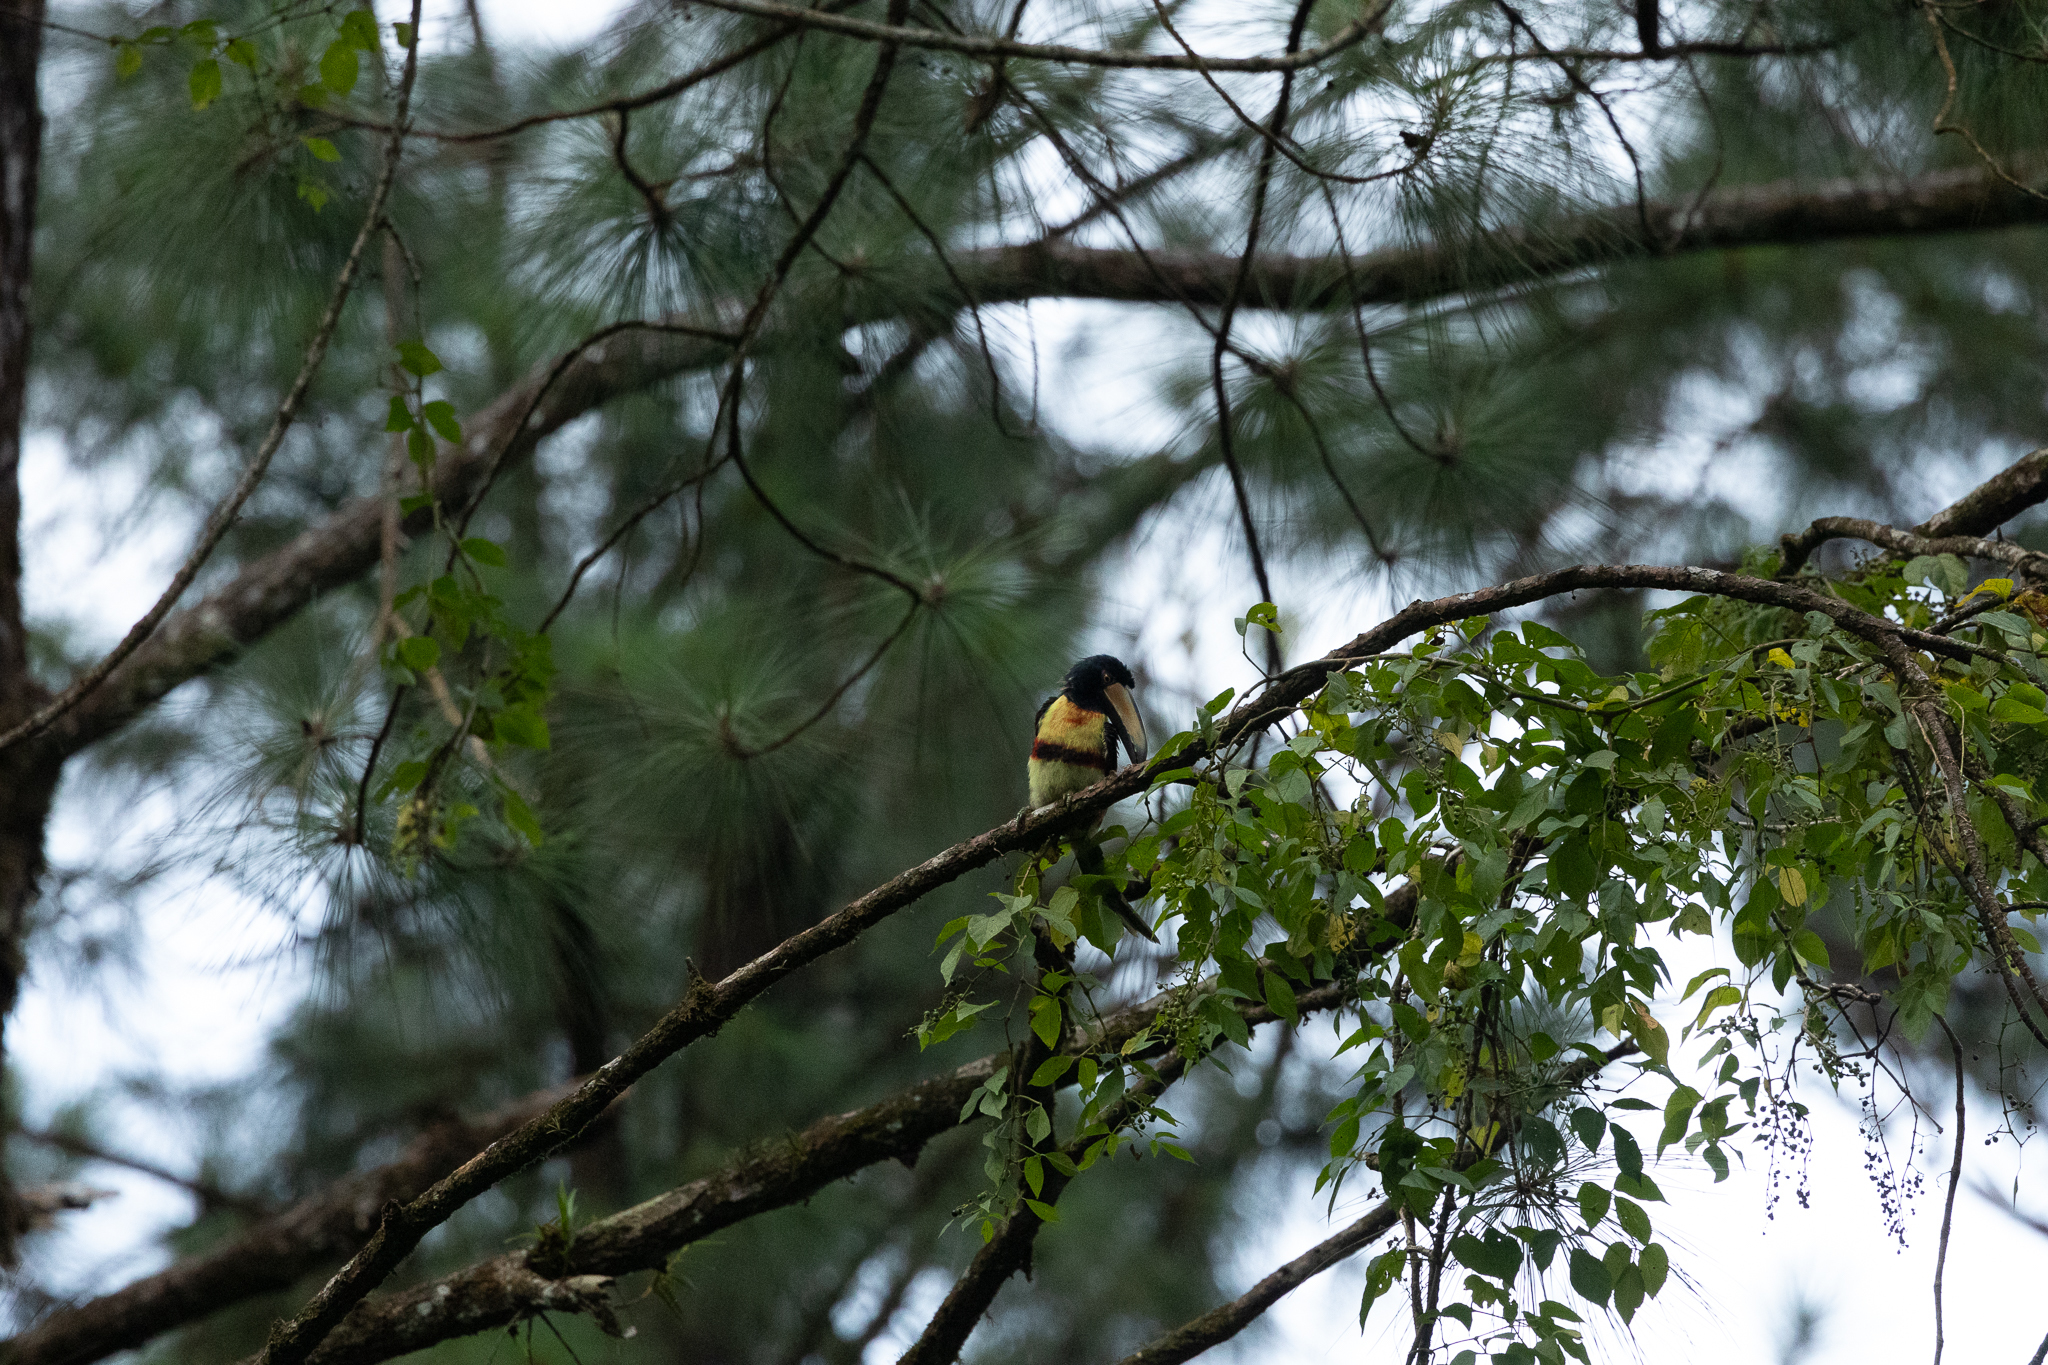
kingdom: Animalia
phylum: Chordata
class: Aves
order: Piciformes
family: Ramphastidae
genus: Pteroglossus
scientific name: Pteroglossus torquatus
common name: Collared aracari
